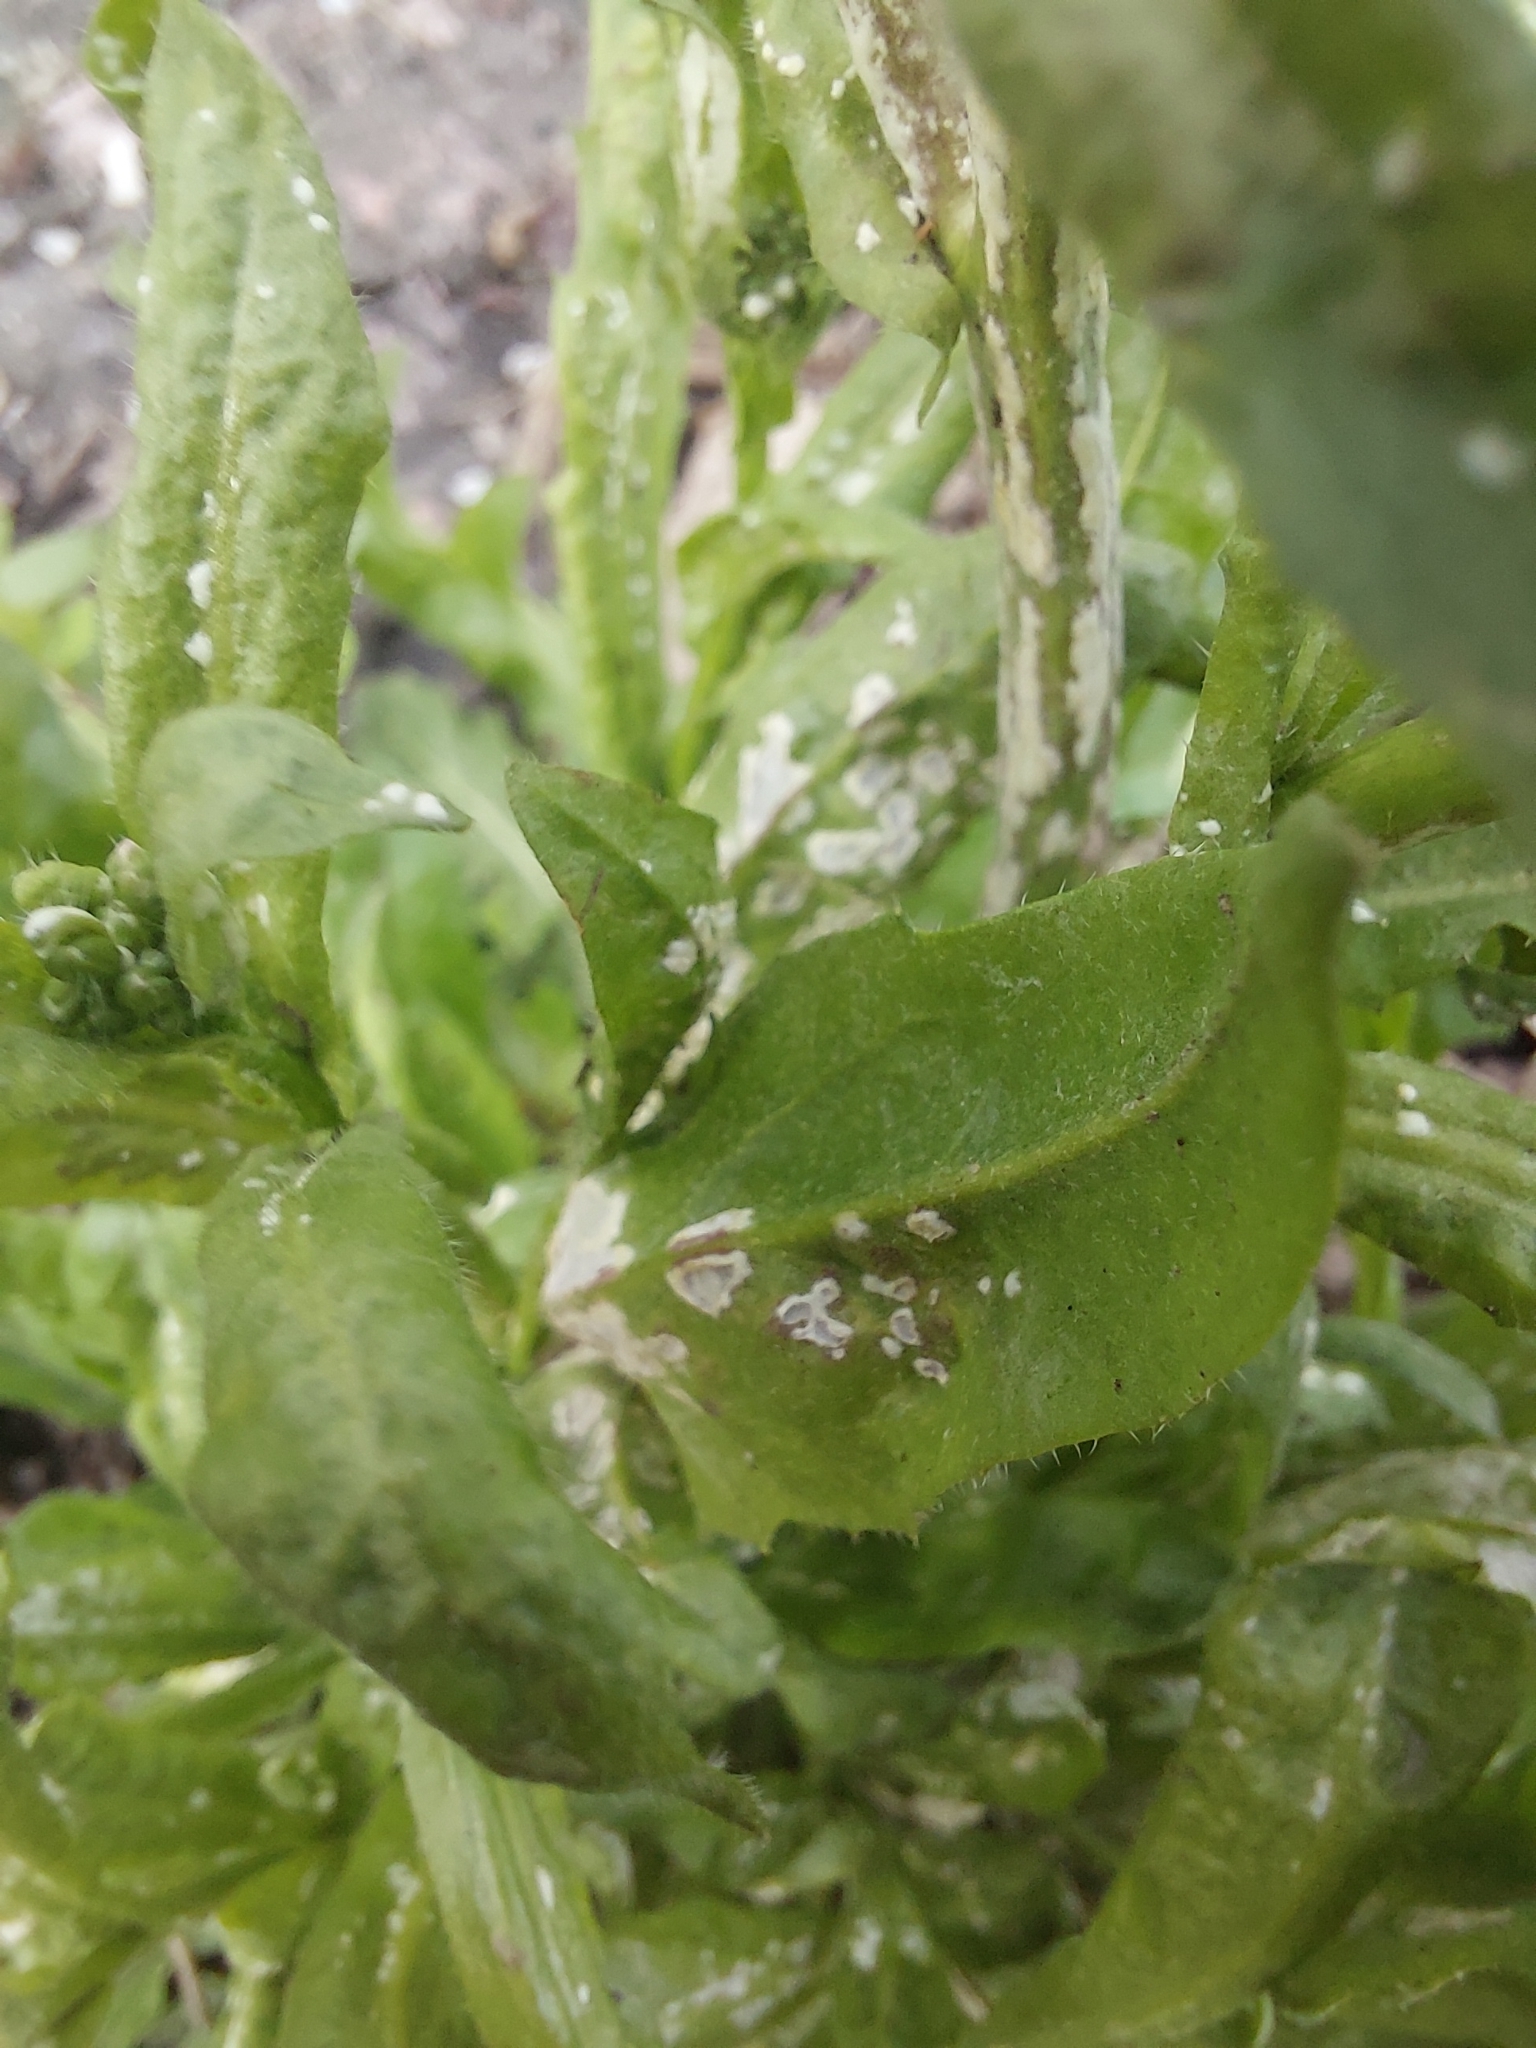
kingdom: Plantae
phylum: Tracheophyta
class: Magnoliopsida
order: Brassicales
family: Brassicaceae
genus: Capsella
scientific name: Capsella bursa-pastoris
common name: Shepherd's purse
